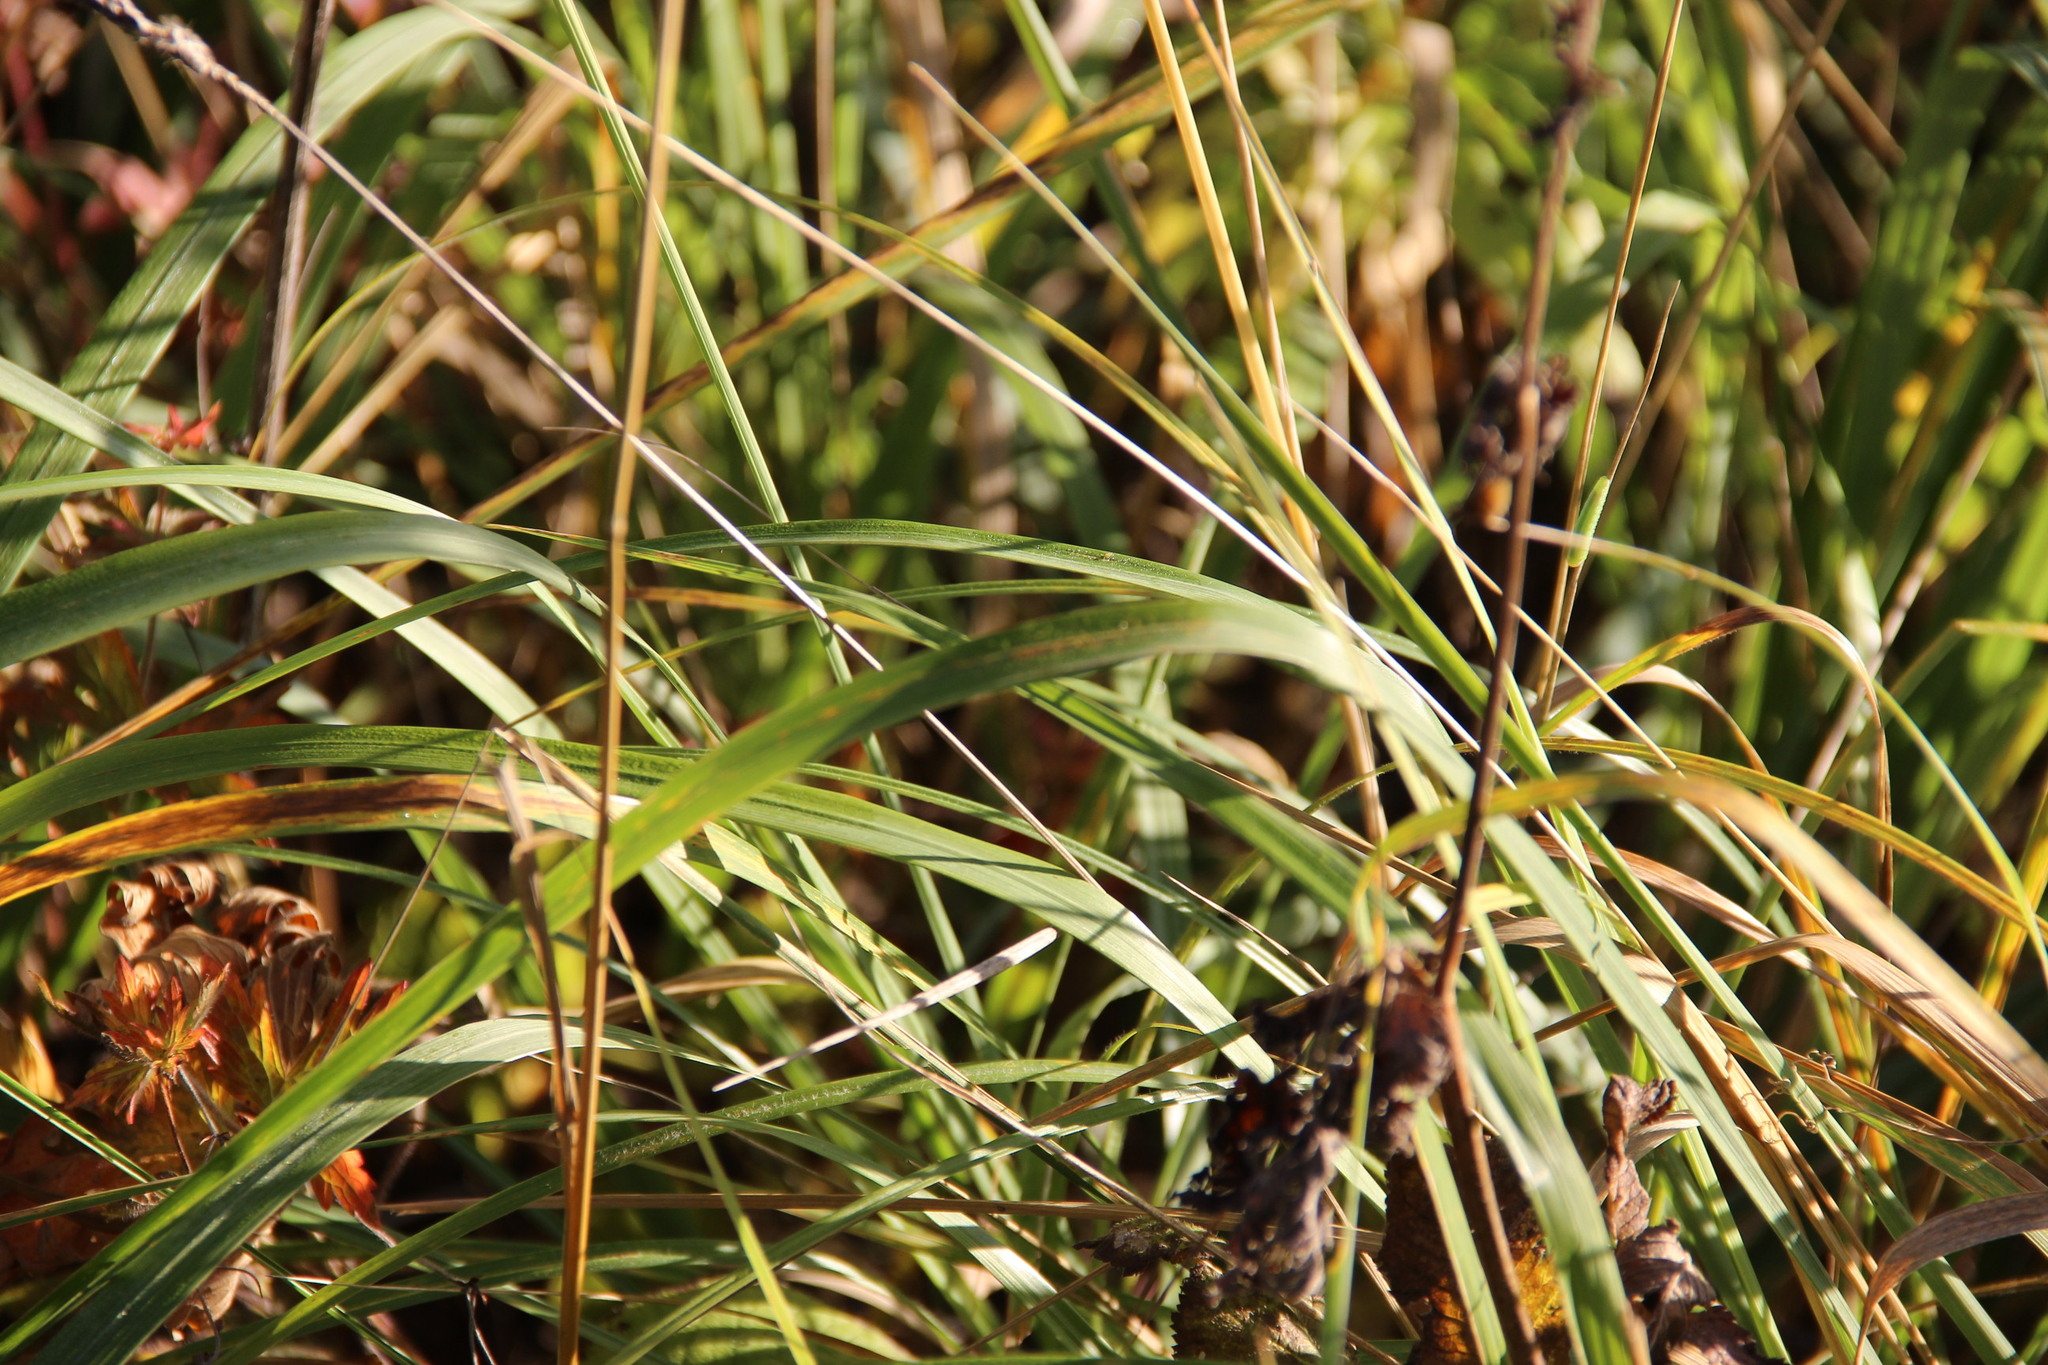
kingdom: Plantae
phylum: Tracheophyta
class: Liliopsida
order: Poales
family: Poaceae
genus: Calamagrostis
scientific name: Calamagrostis epigejos
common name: Wood small-reed
